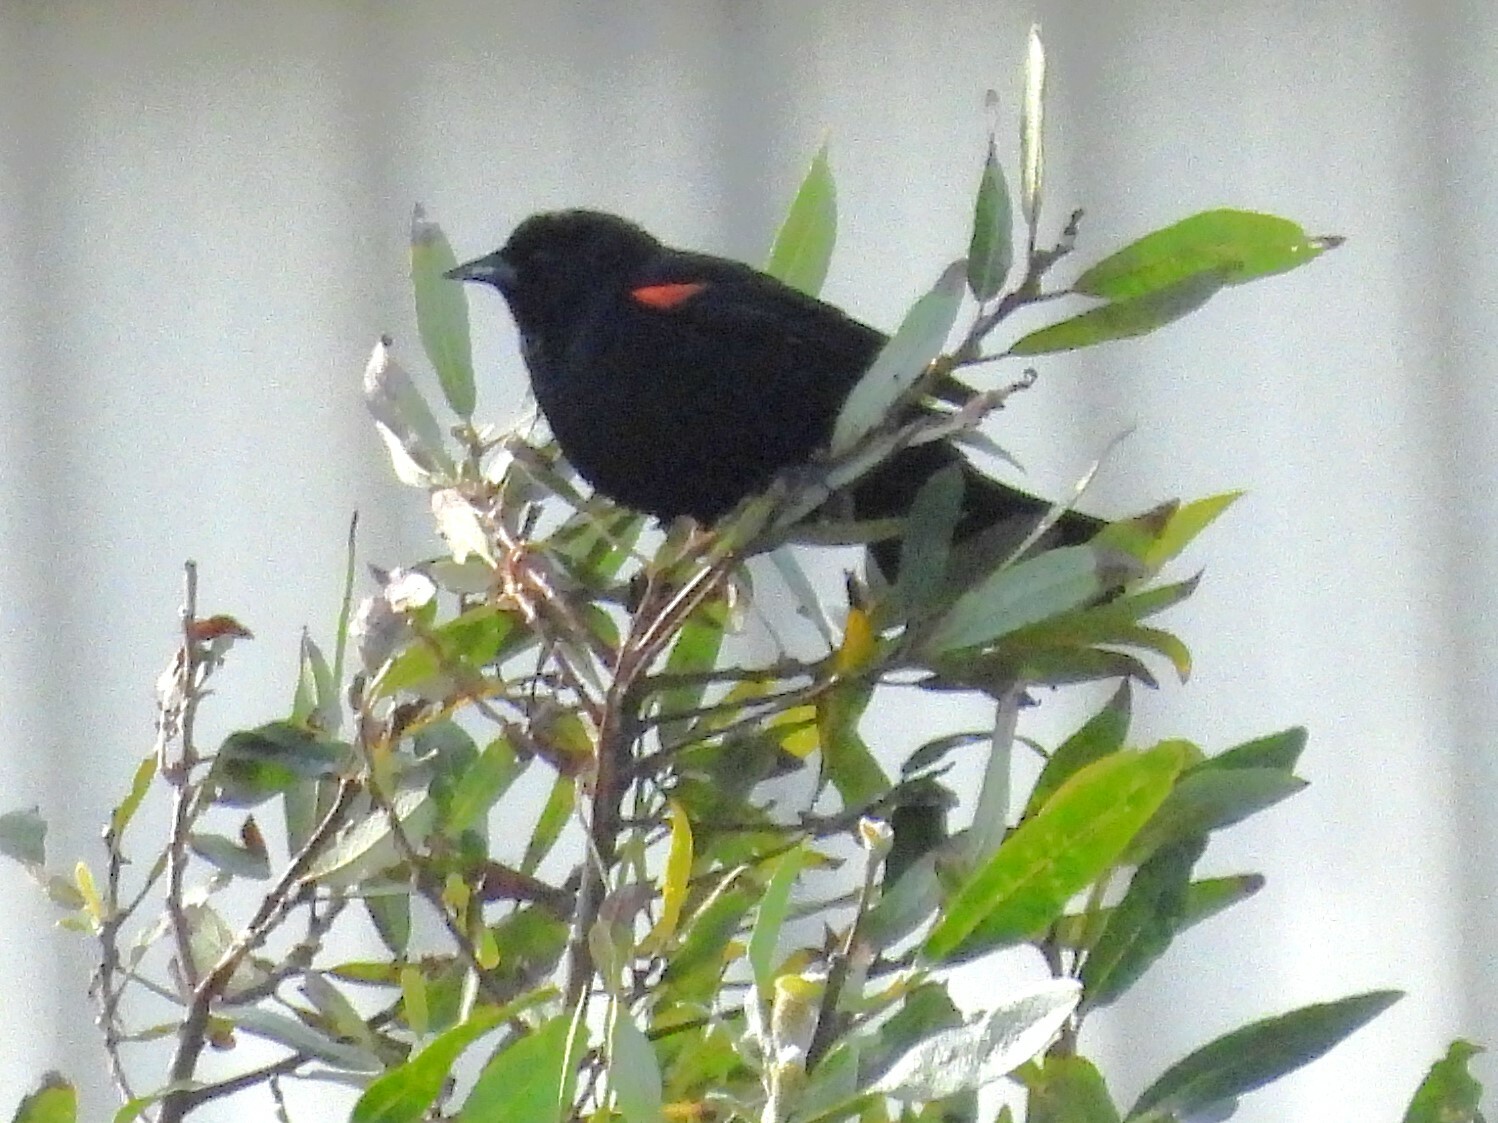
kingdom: Animalia
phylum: Chordata
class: Aves
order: Passeriformes
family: Icteridae
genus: Agelaius
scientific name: Agelaius phoeniceus
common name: Red-winged blackbird
